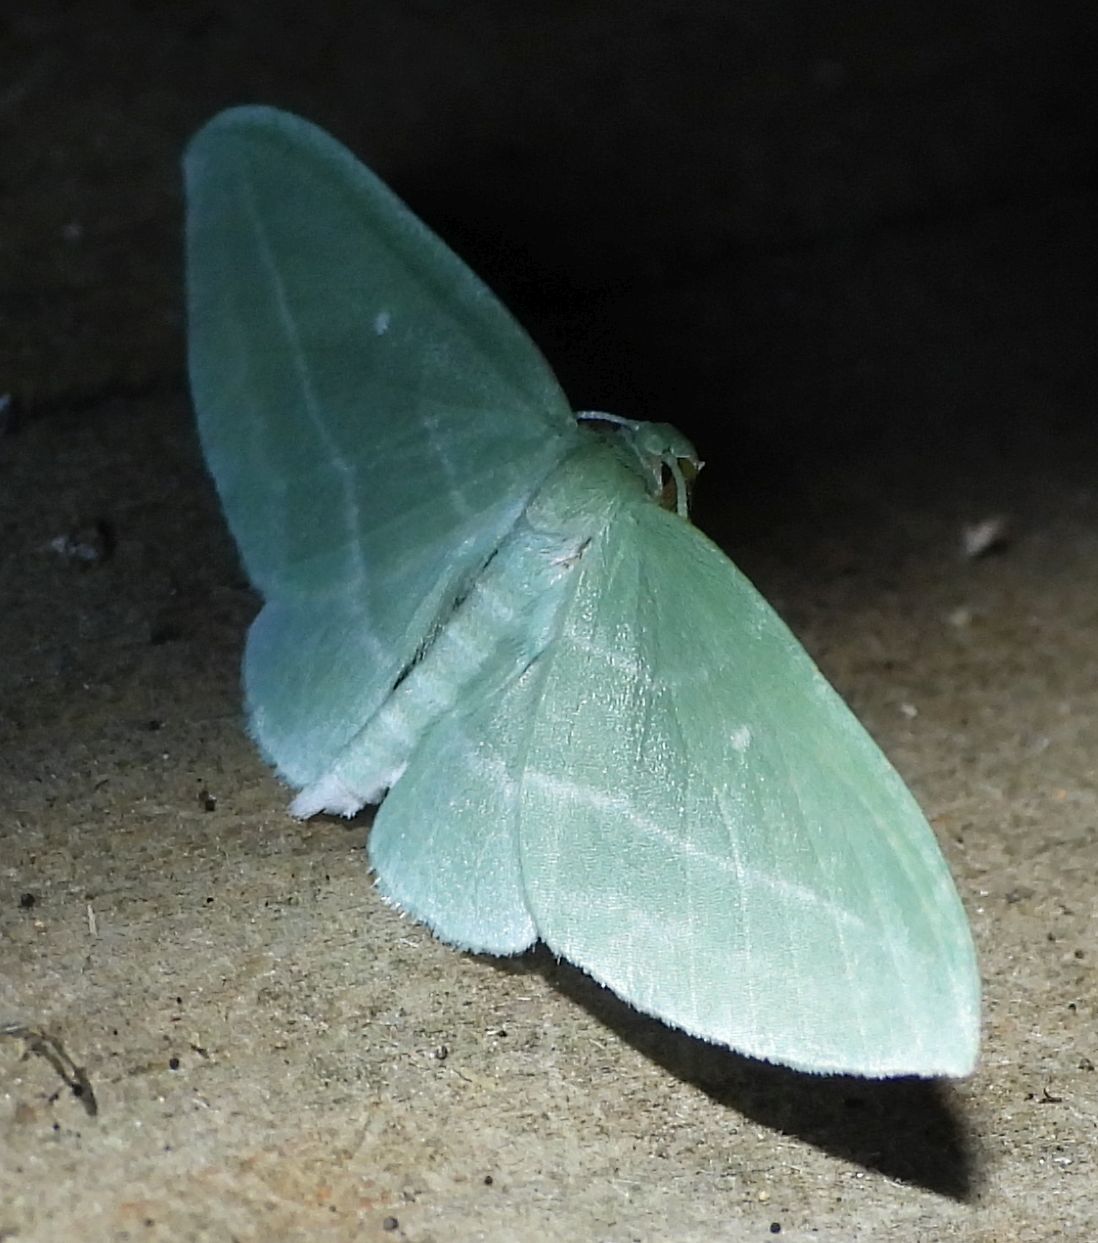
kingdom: Animalia
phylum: Arthropoda
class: Insecta
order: Lepidoptera
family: Geometridae
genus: Dyspteris
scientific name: Dyspteris abortivaria
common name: Bad-wing
